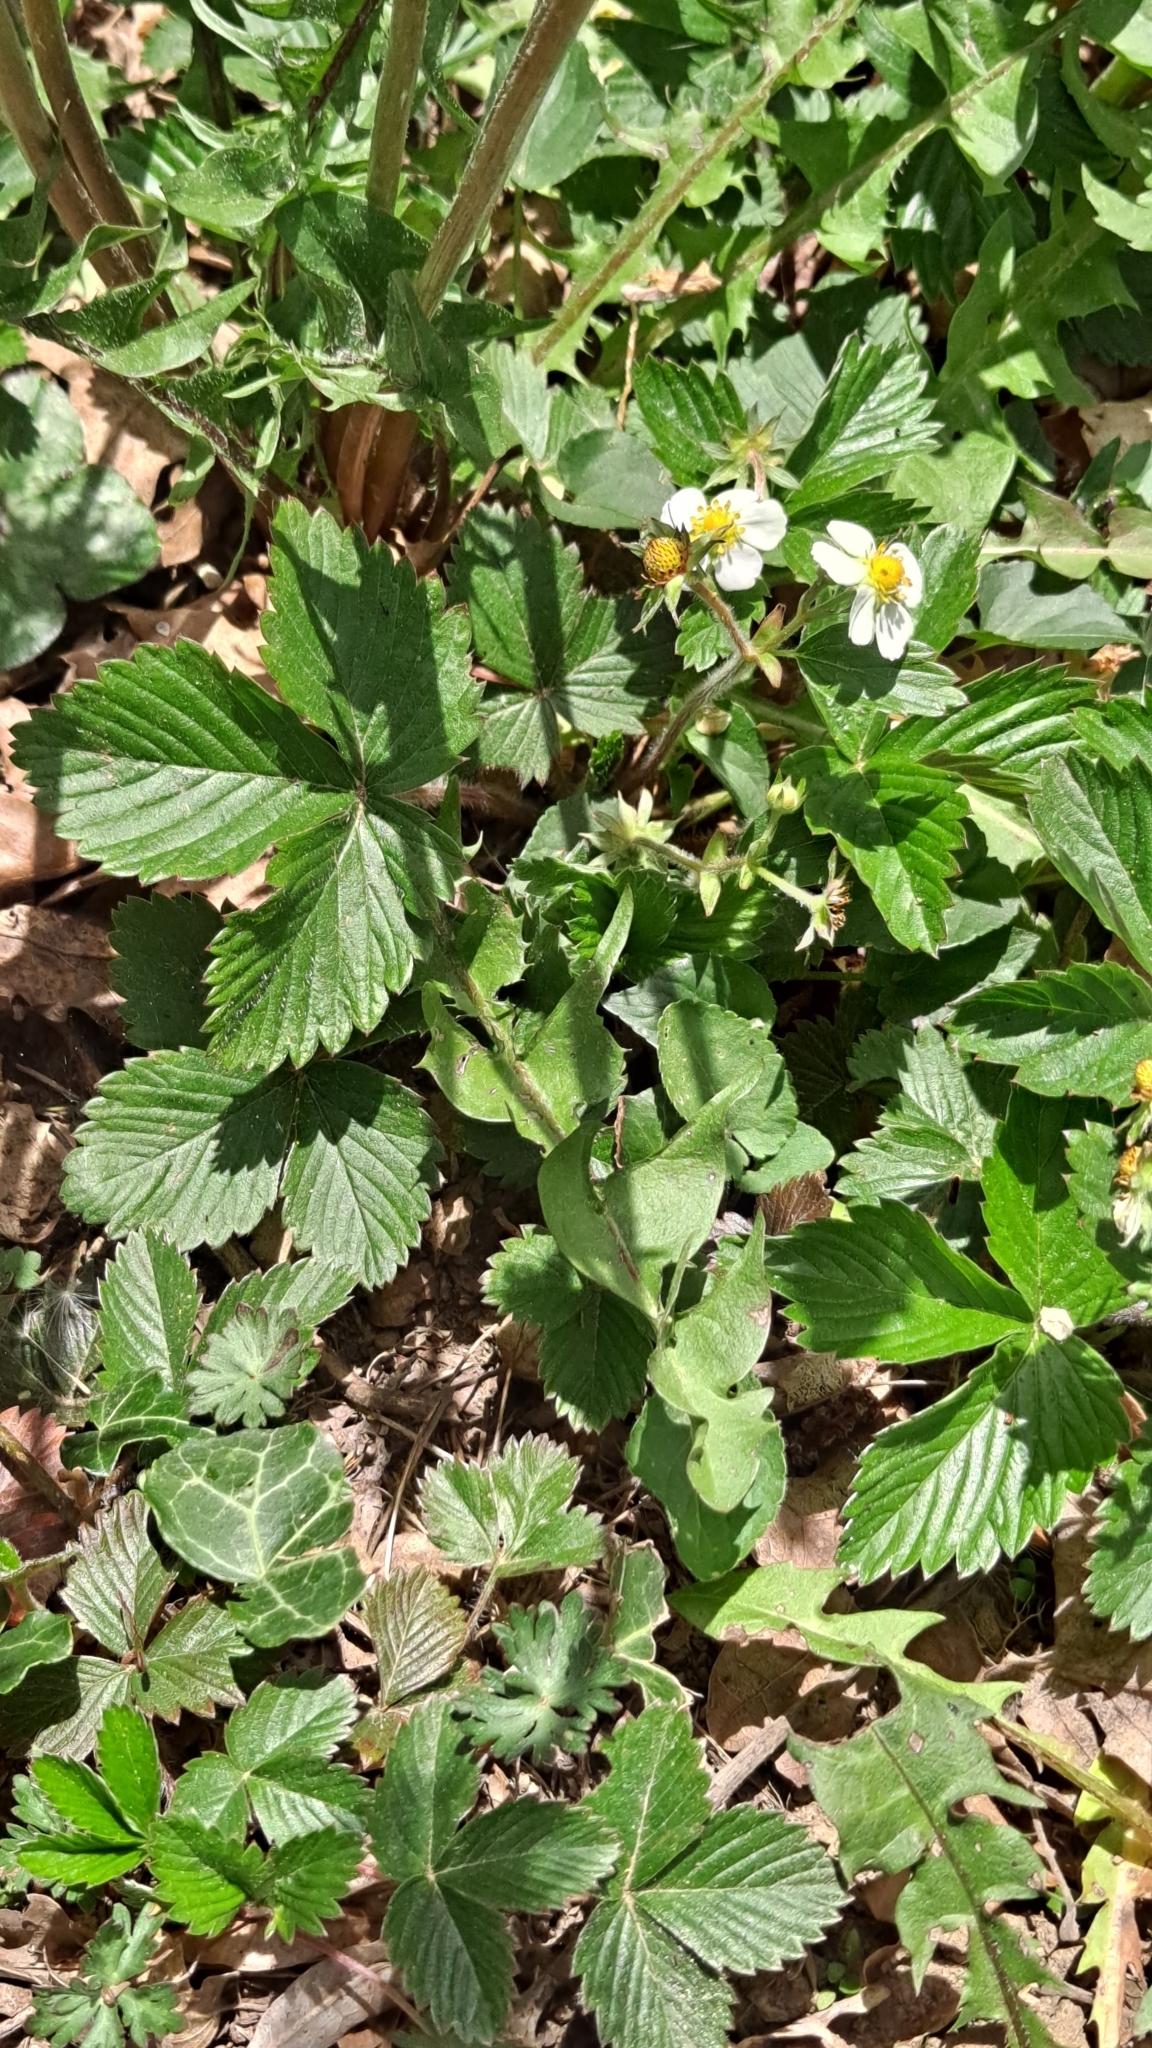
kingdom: Plantae
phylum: Tracheophyta
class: Magnoliopsida
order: Rosales
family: Rosaceae
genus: Fragaria
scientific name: Fragaria vesca
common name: Wild strawberry
